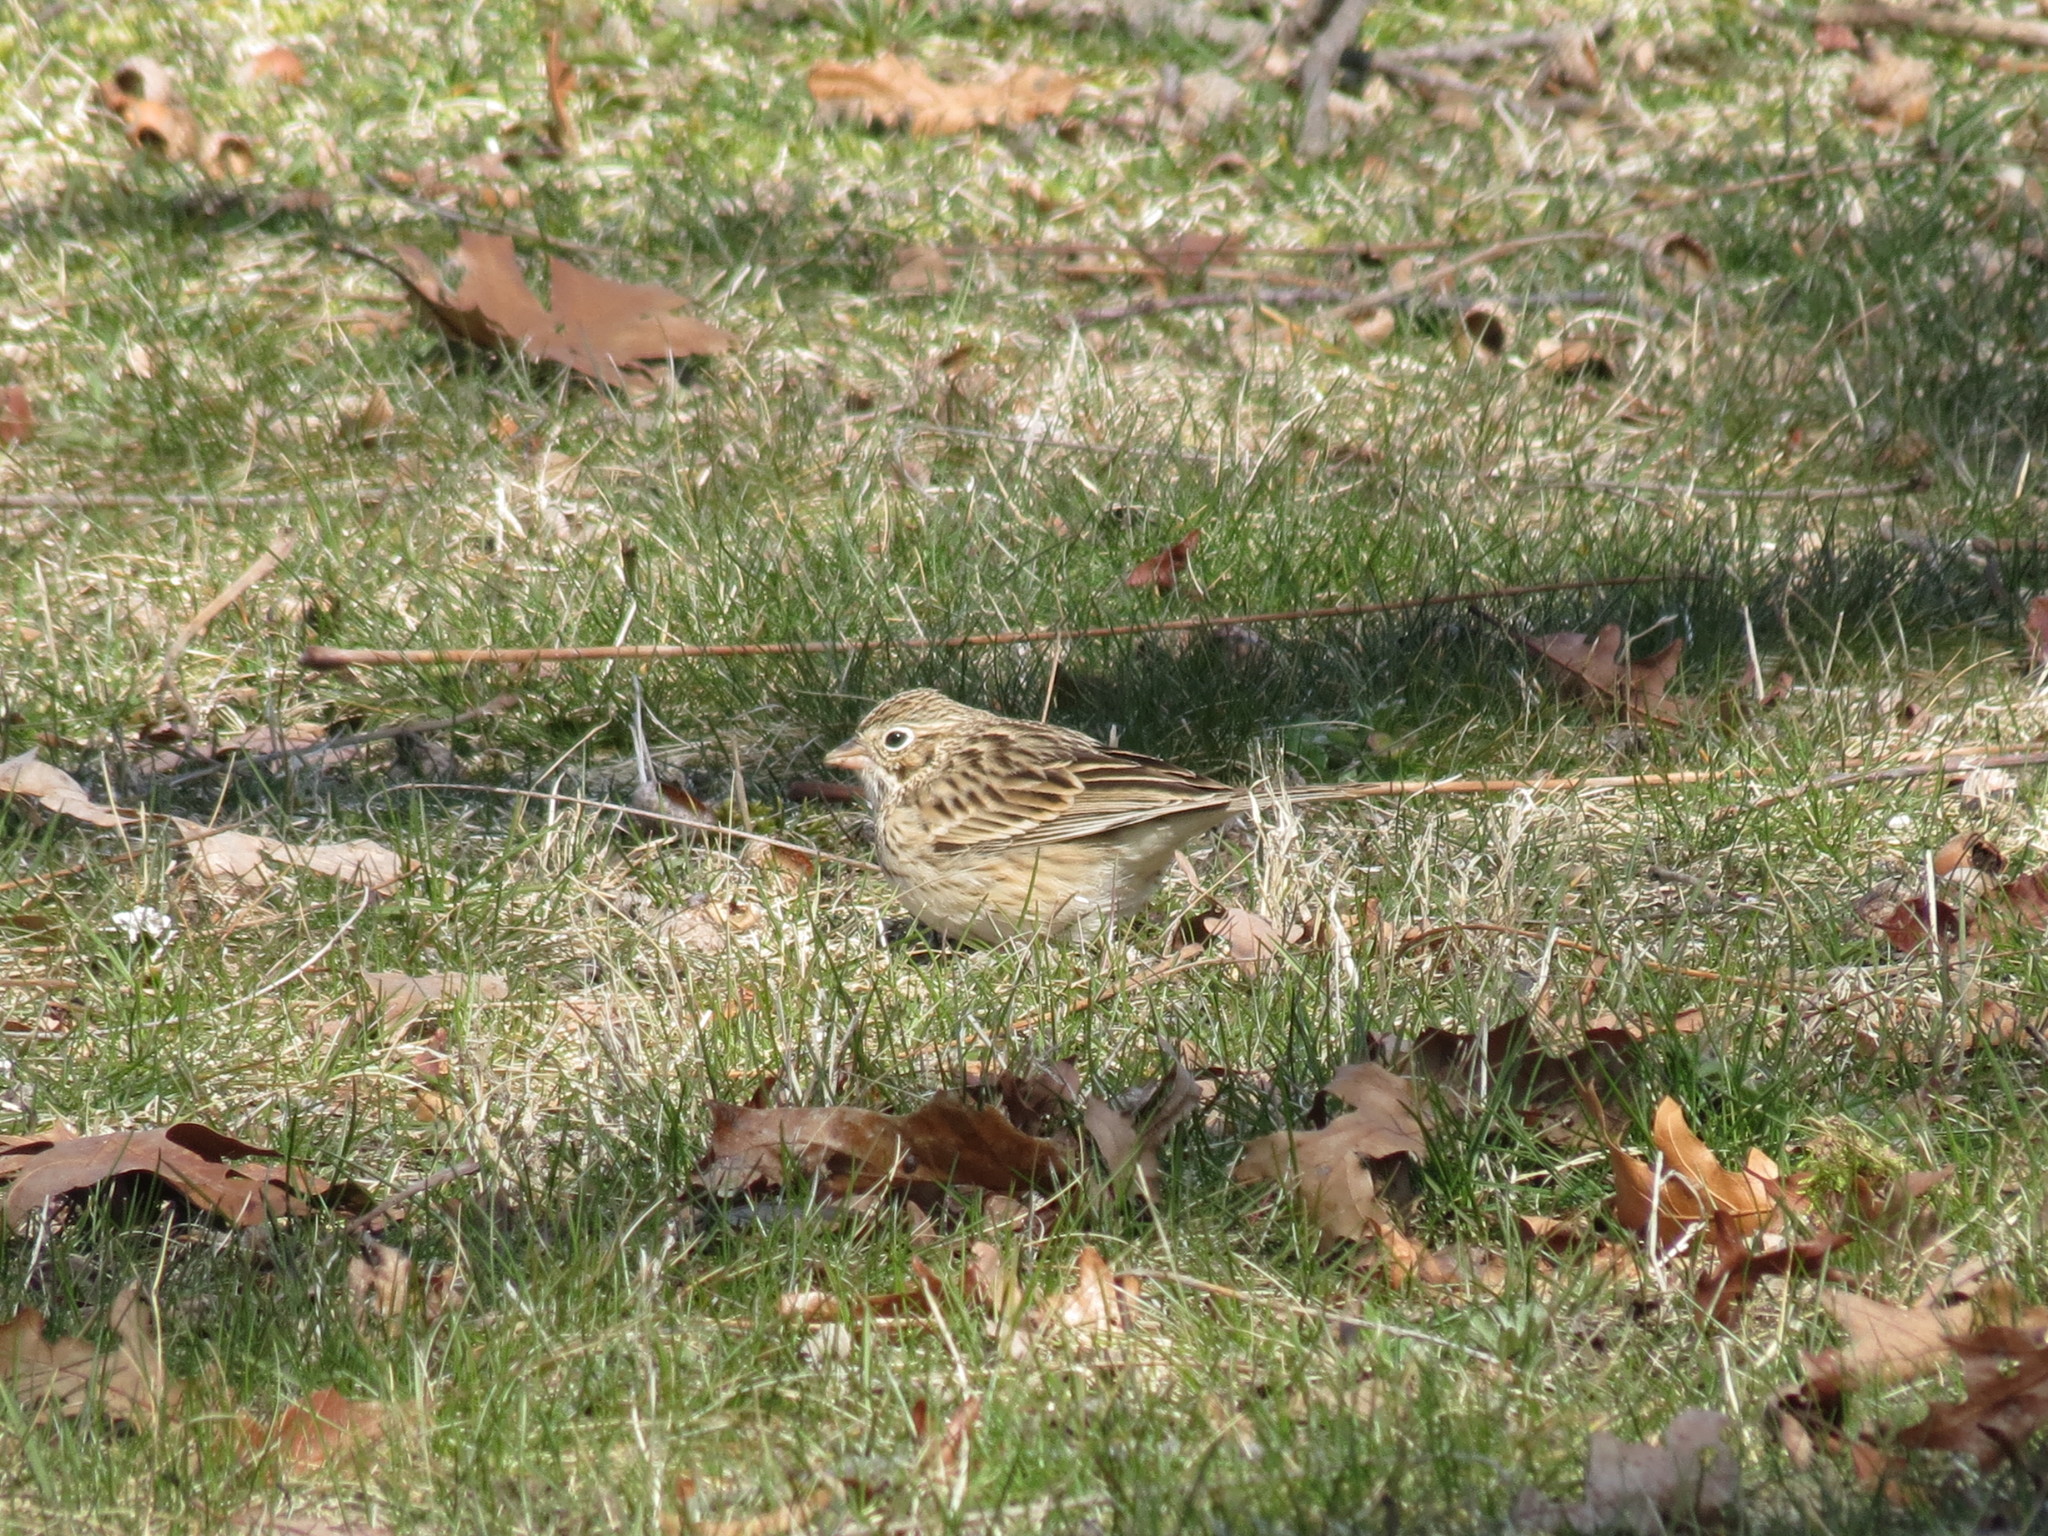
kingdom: Animalia
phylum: Chordata
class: Aves
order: Passeriformes
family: Passerellidae
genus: Pooecetes
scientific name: Pooecetes gramineus
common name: Vesper sparrow
